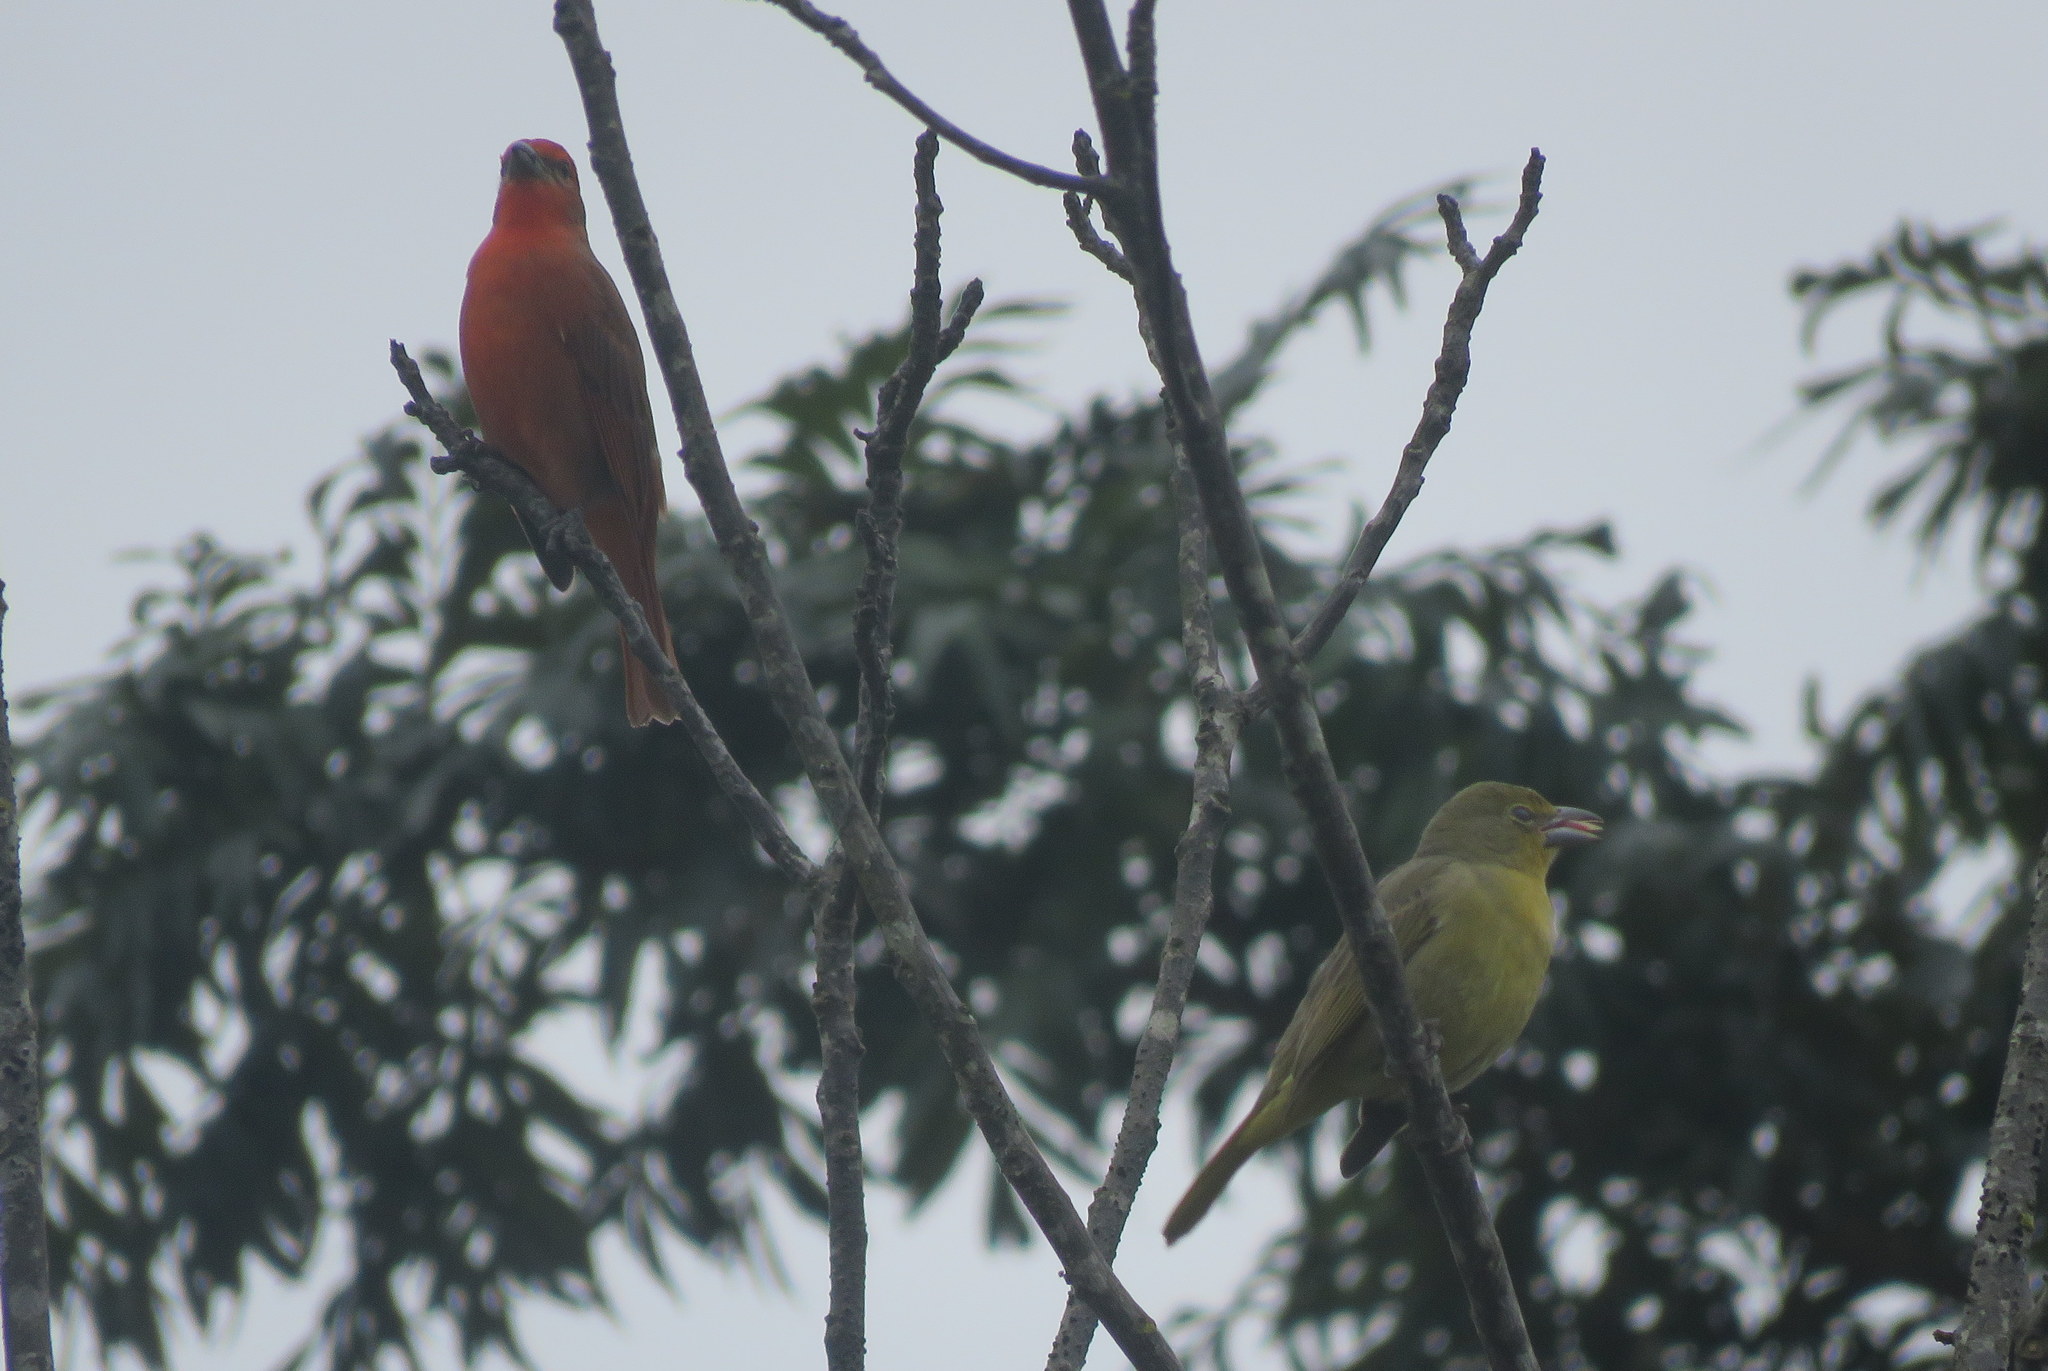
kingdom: Animalia
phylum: Chordata
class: Aves
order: Passeriformes
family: Cardinalidae
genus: Piranga
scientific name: Piranga flava
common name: Red tanager
